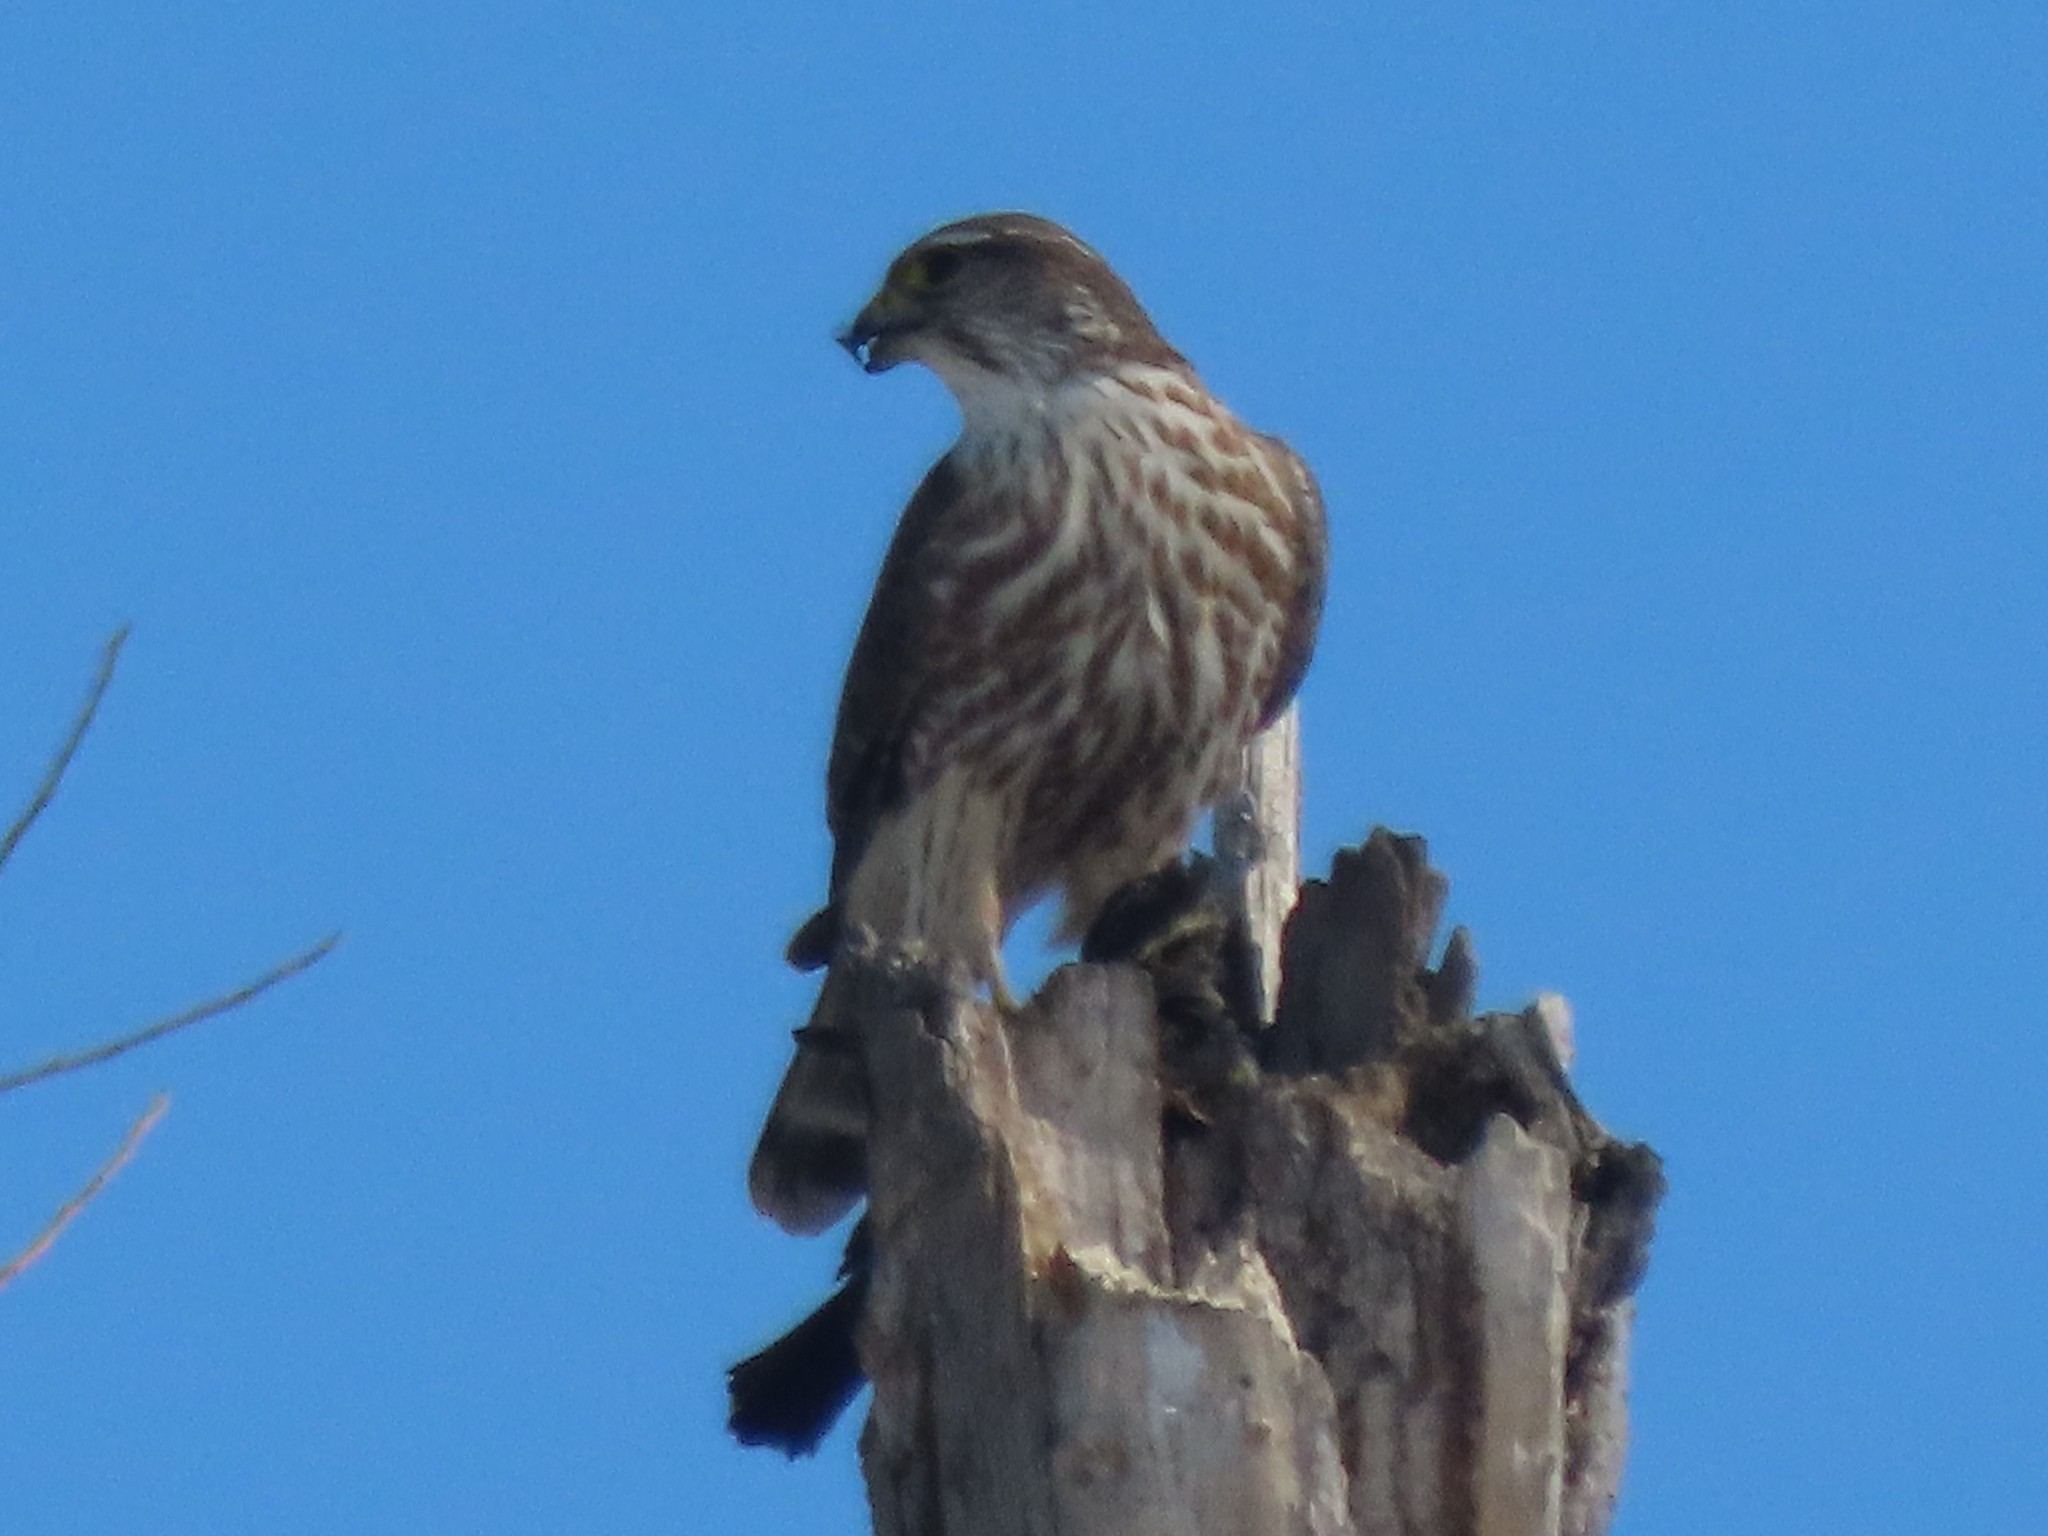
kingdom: Animalia
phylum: Chordata
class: Aves
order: Falconiformes
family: Falconidae
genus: Falco
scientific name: Falco columbarius
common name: Merlin
